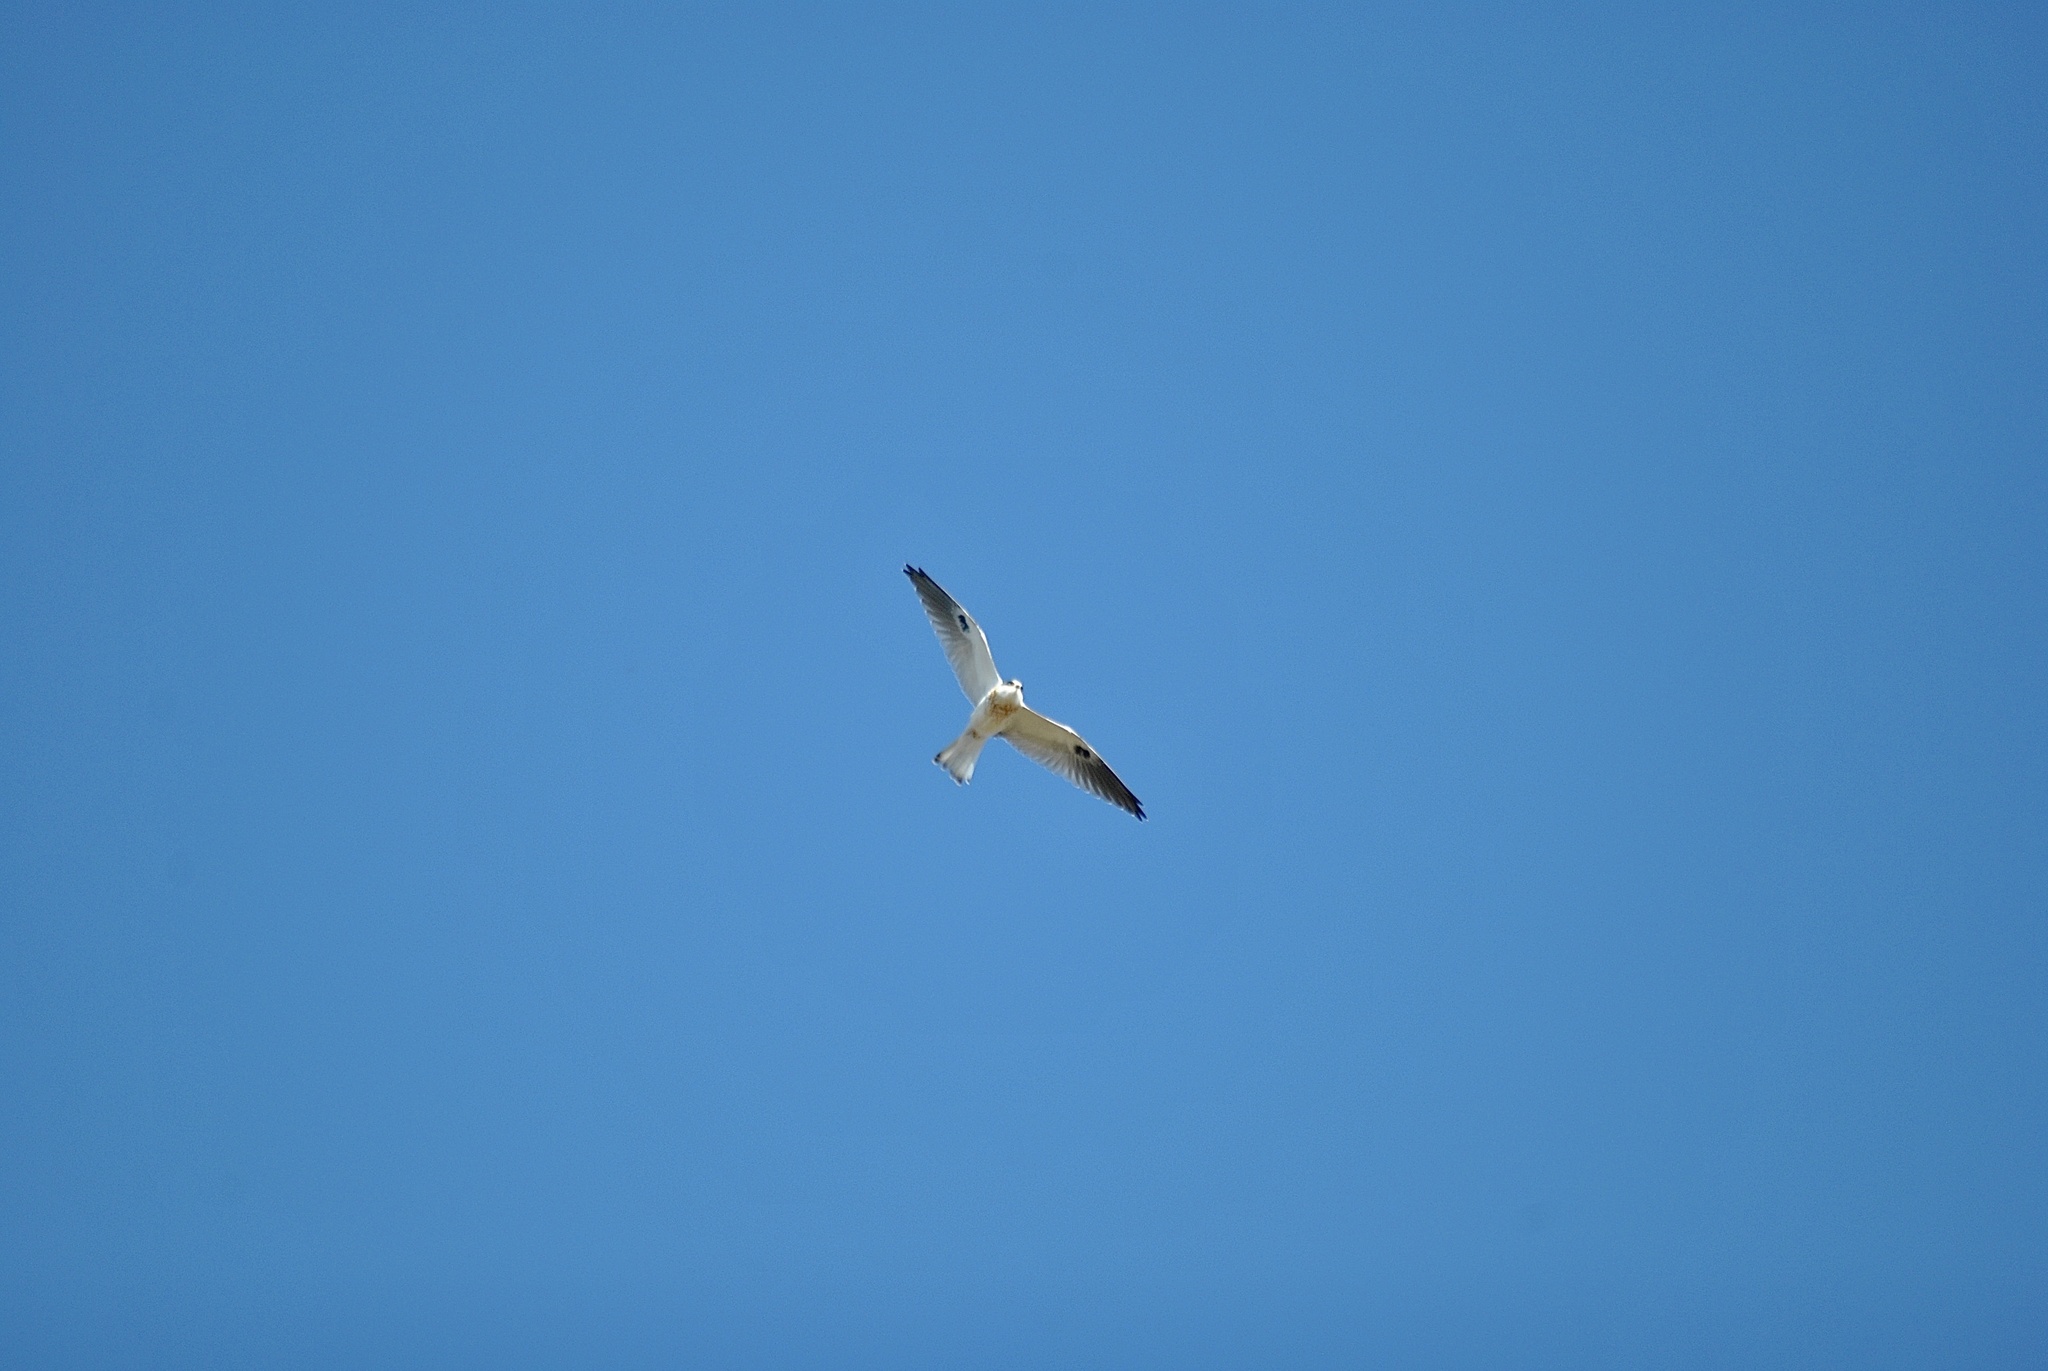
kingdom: Animalia
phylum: Chordata
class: Aves
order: Accipitriformes
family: Accipitridae
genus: Elanus
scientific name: Elanus leucurus
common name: White-tailed kite
